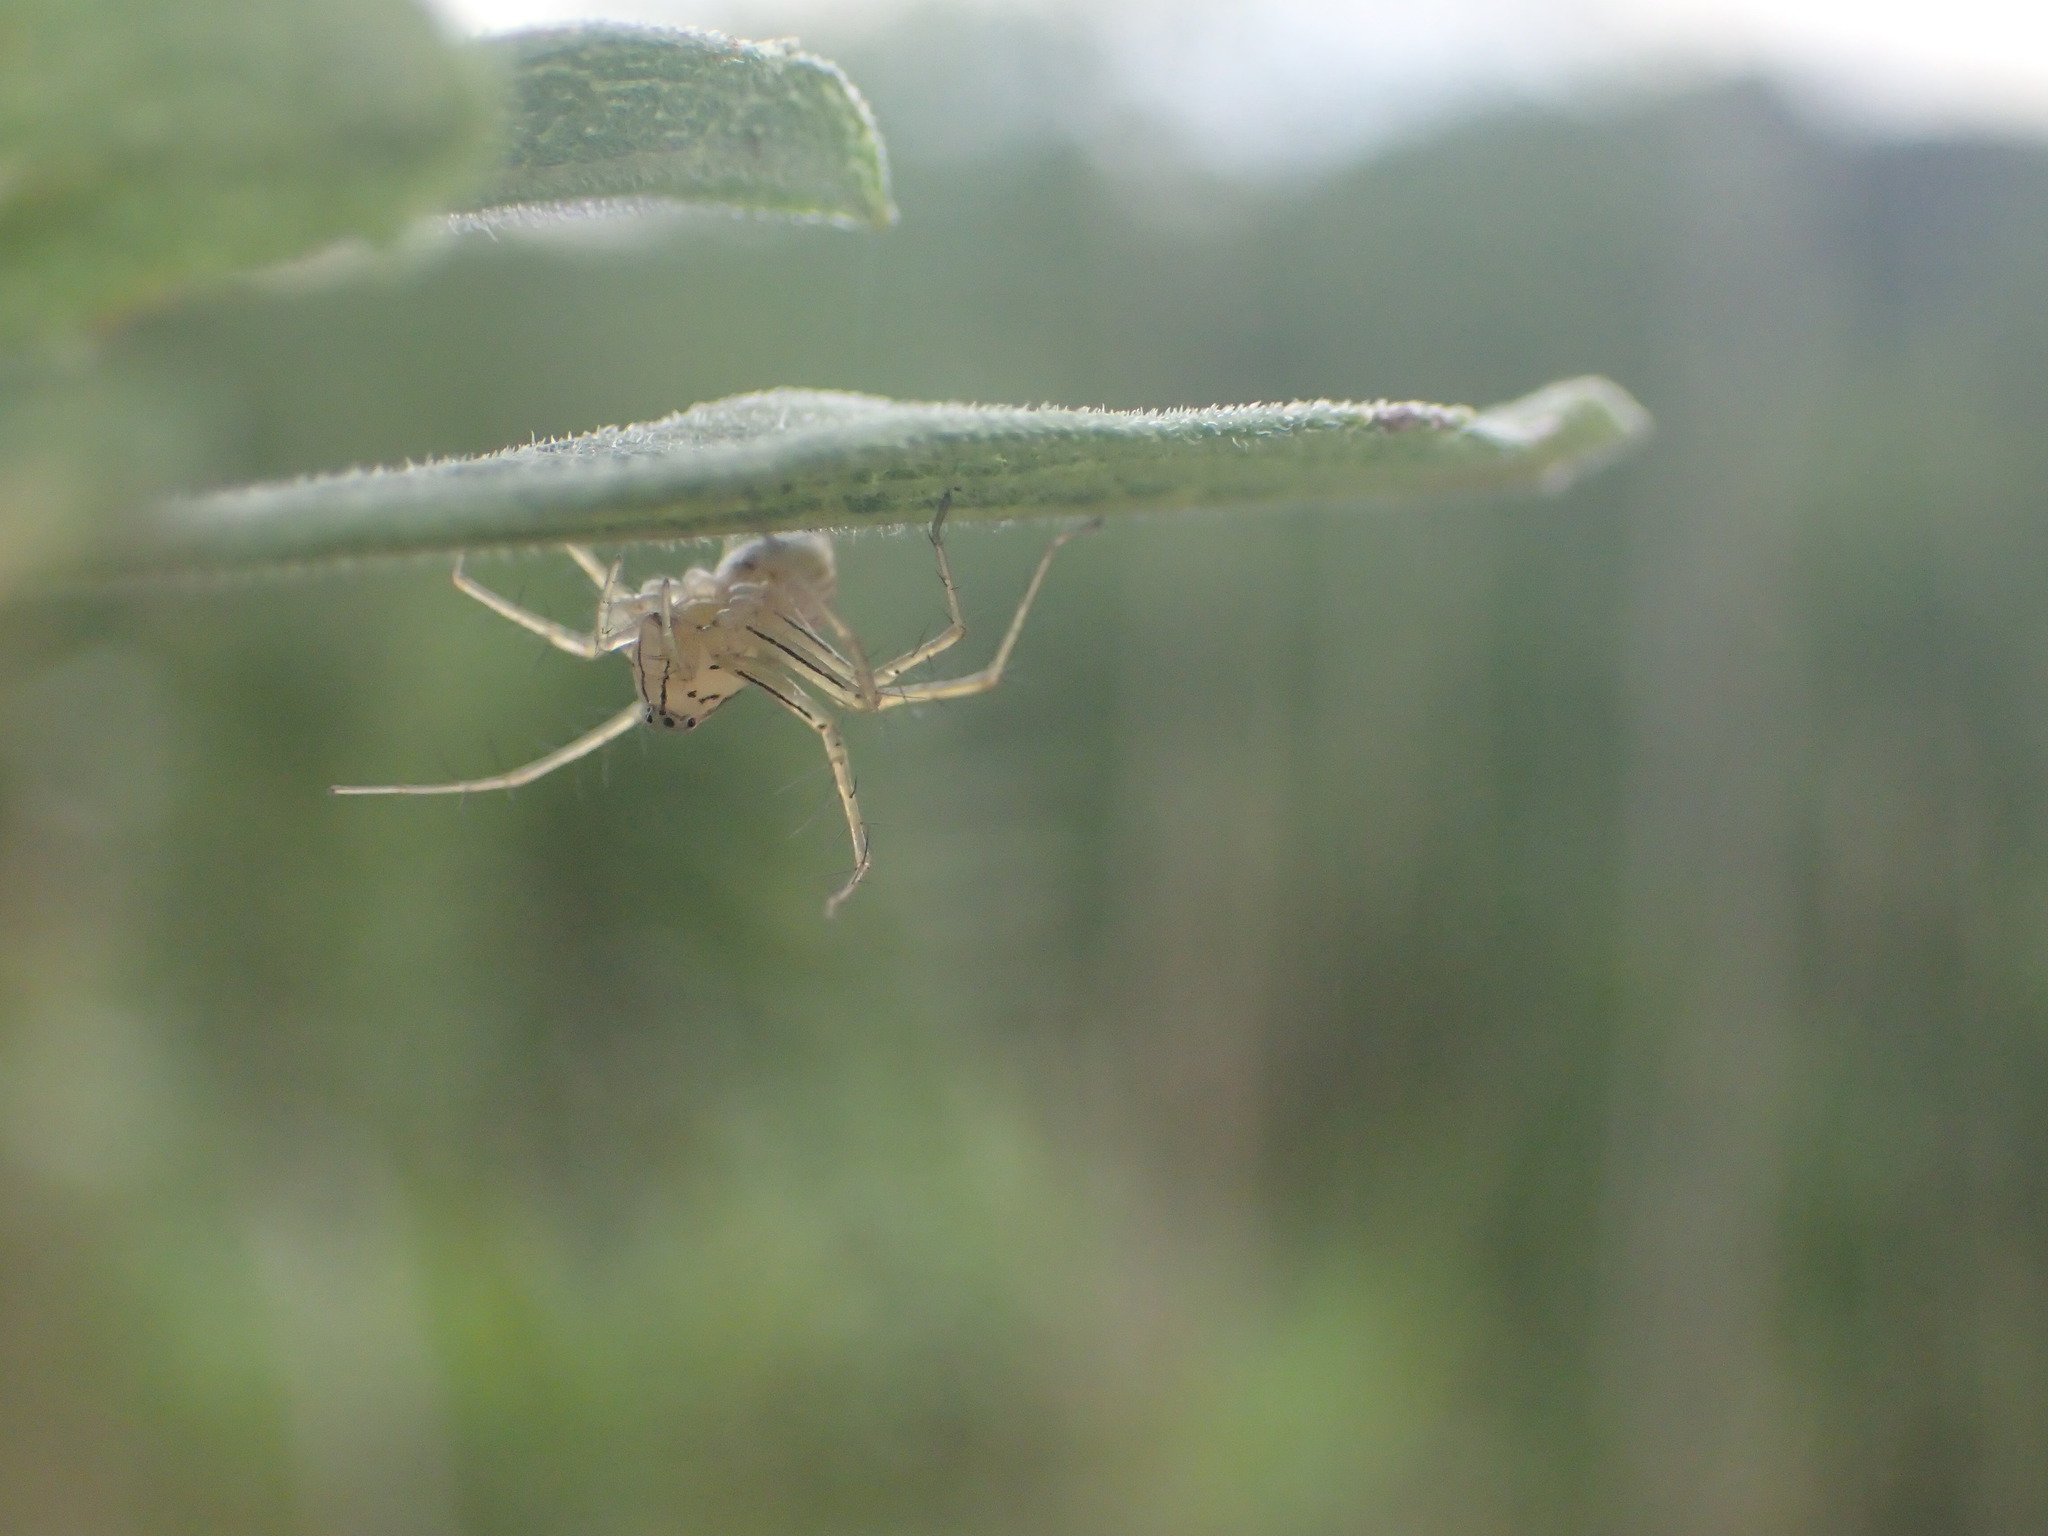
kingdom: Animalia
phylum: Arthropoda
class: Arachnida
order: Araneae
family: Oxyopidae
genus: Oxyopes
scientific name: Oxyopes salticus
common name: Lynx spiders
